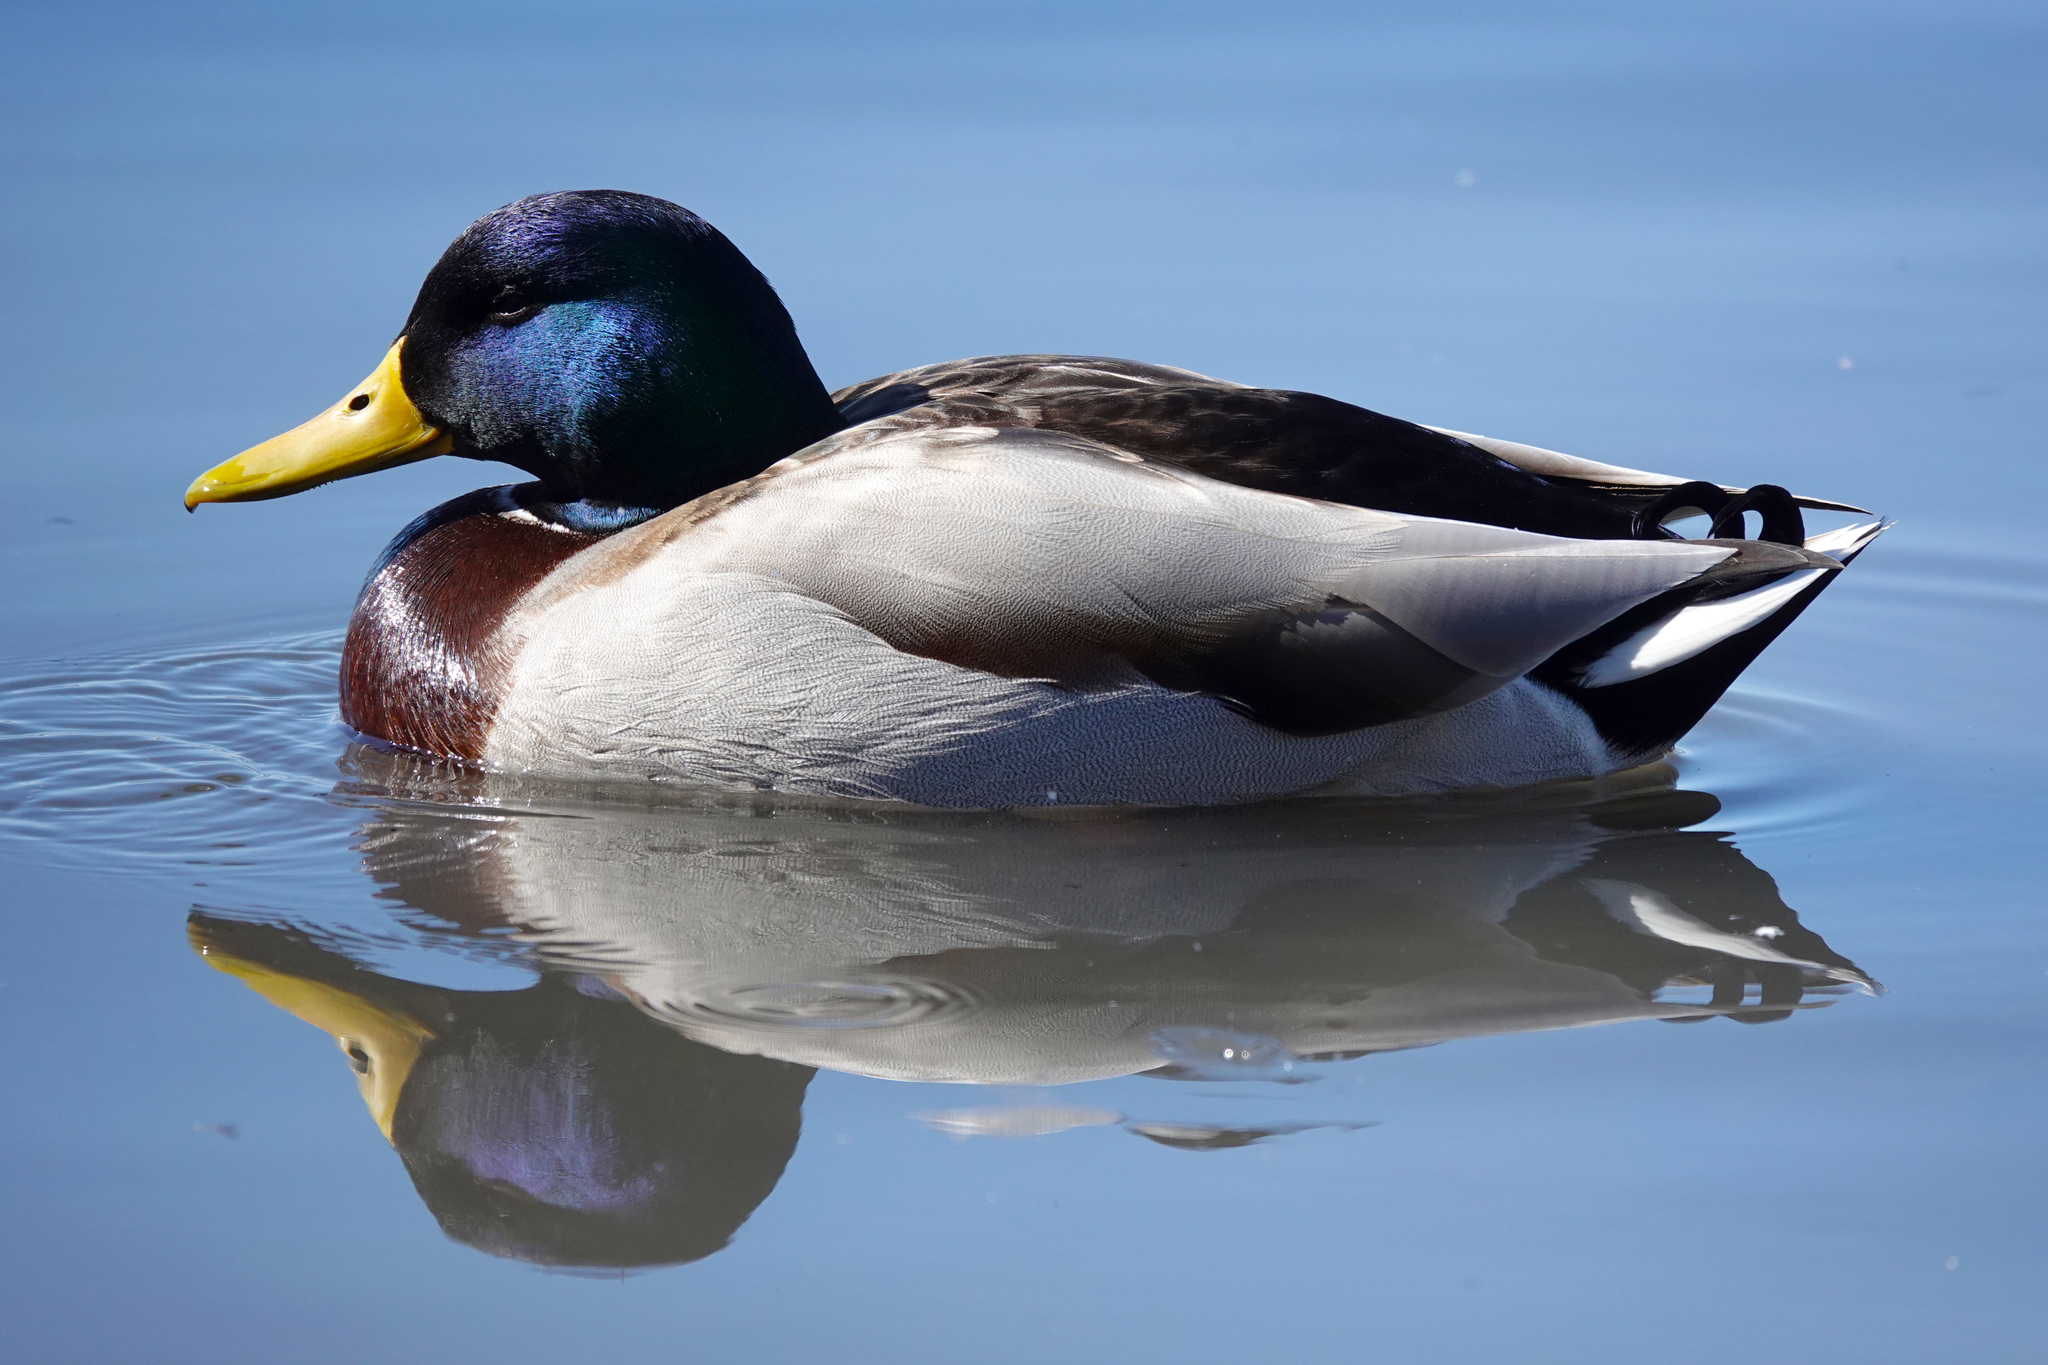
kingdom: Animalia
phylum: Chordata
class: Aves
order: Anseriformes
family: Anatidae
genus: Anas
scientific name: Anas platyrhynchos
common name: Mallard
